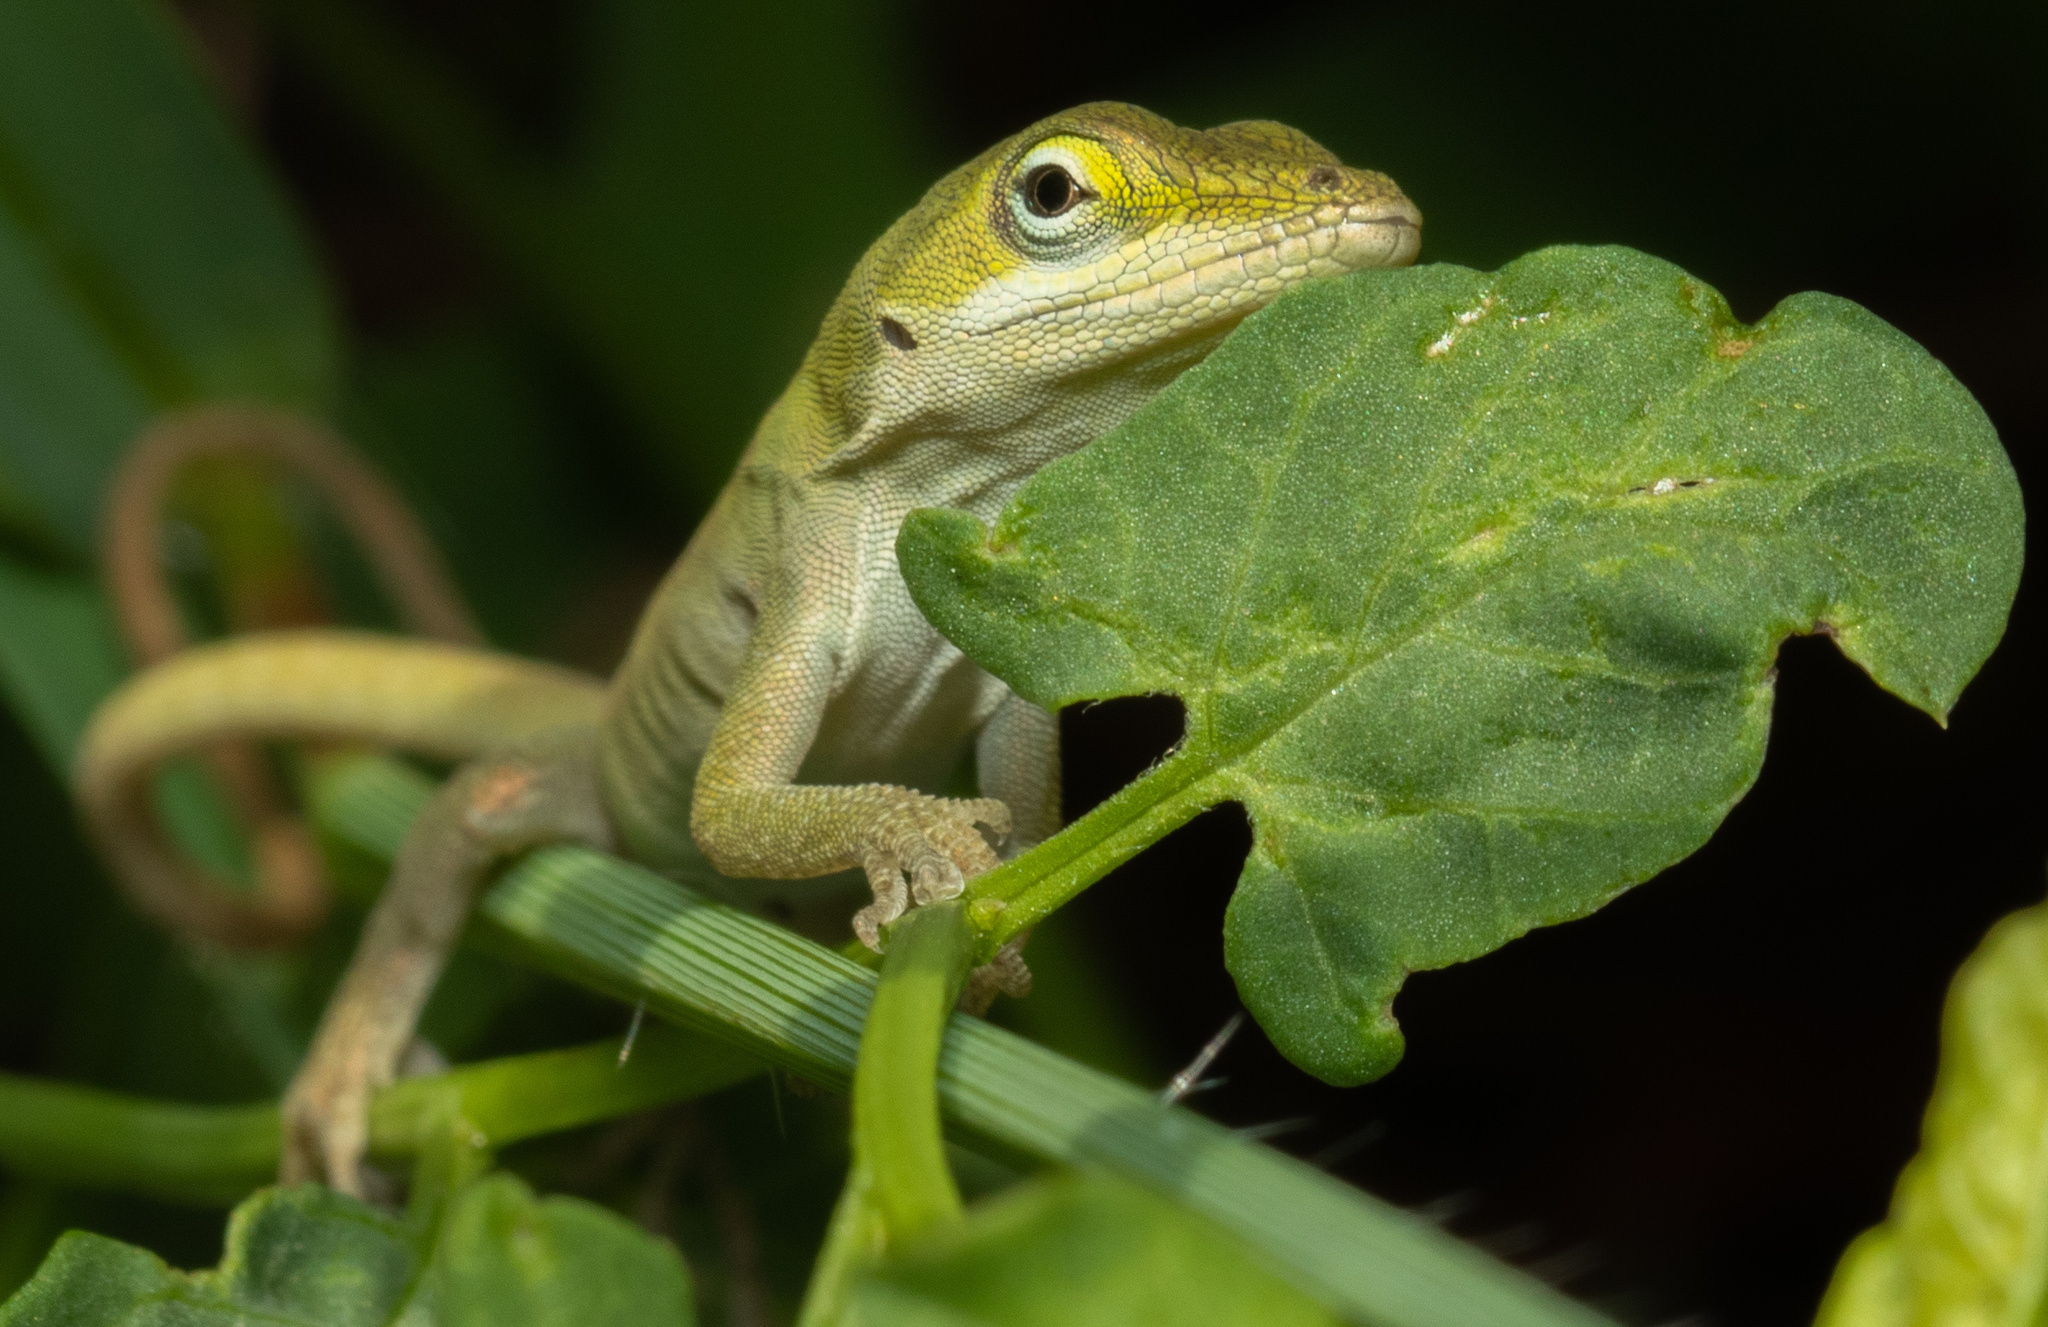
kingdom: Animalia
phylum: Chordata
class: Squamata
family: Dactyloidae
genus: Anolis
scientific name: Anolis carolinensis
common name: Green anole
